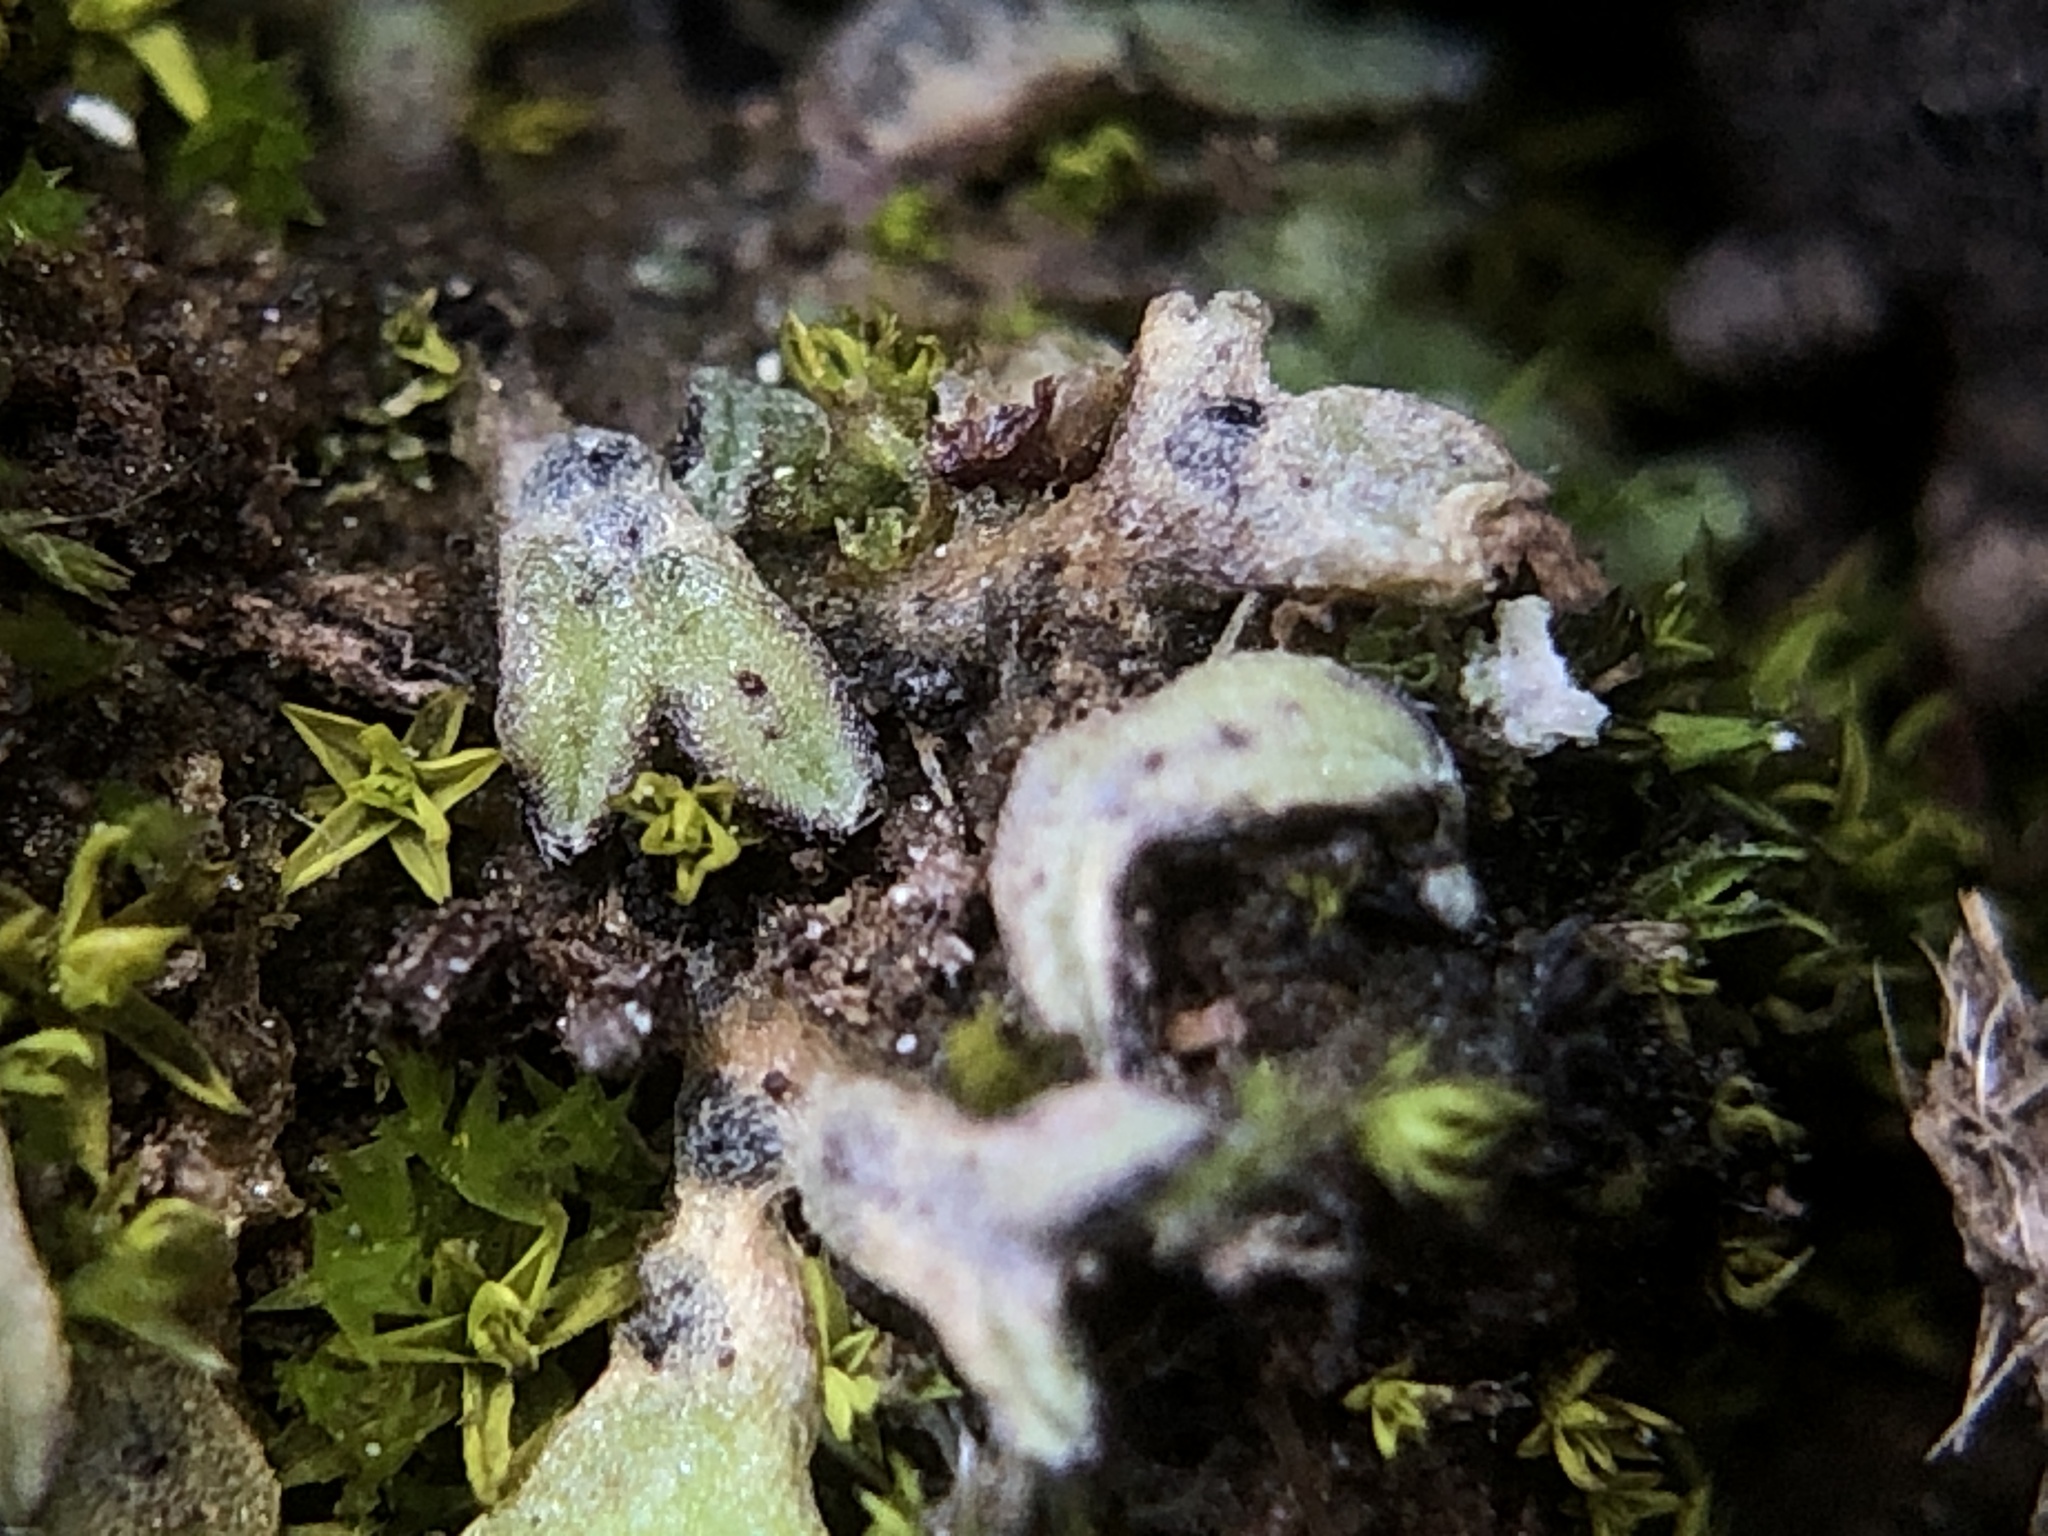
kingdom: Plantae
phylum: Marchantiophyta
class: Marchantiopsida
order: Marchantiales
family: Ricciaceae
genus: Riccia
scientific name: Riccia crozalsii
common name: Ciliate crystalwort
